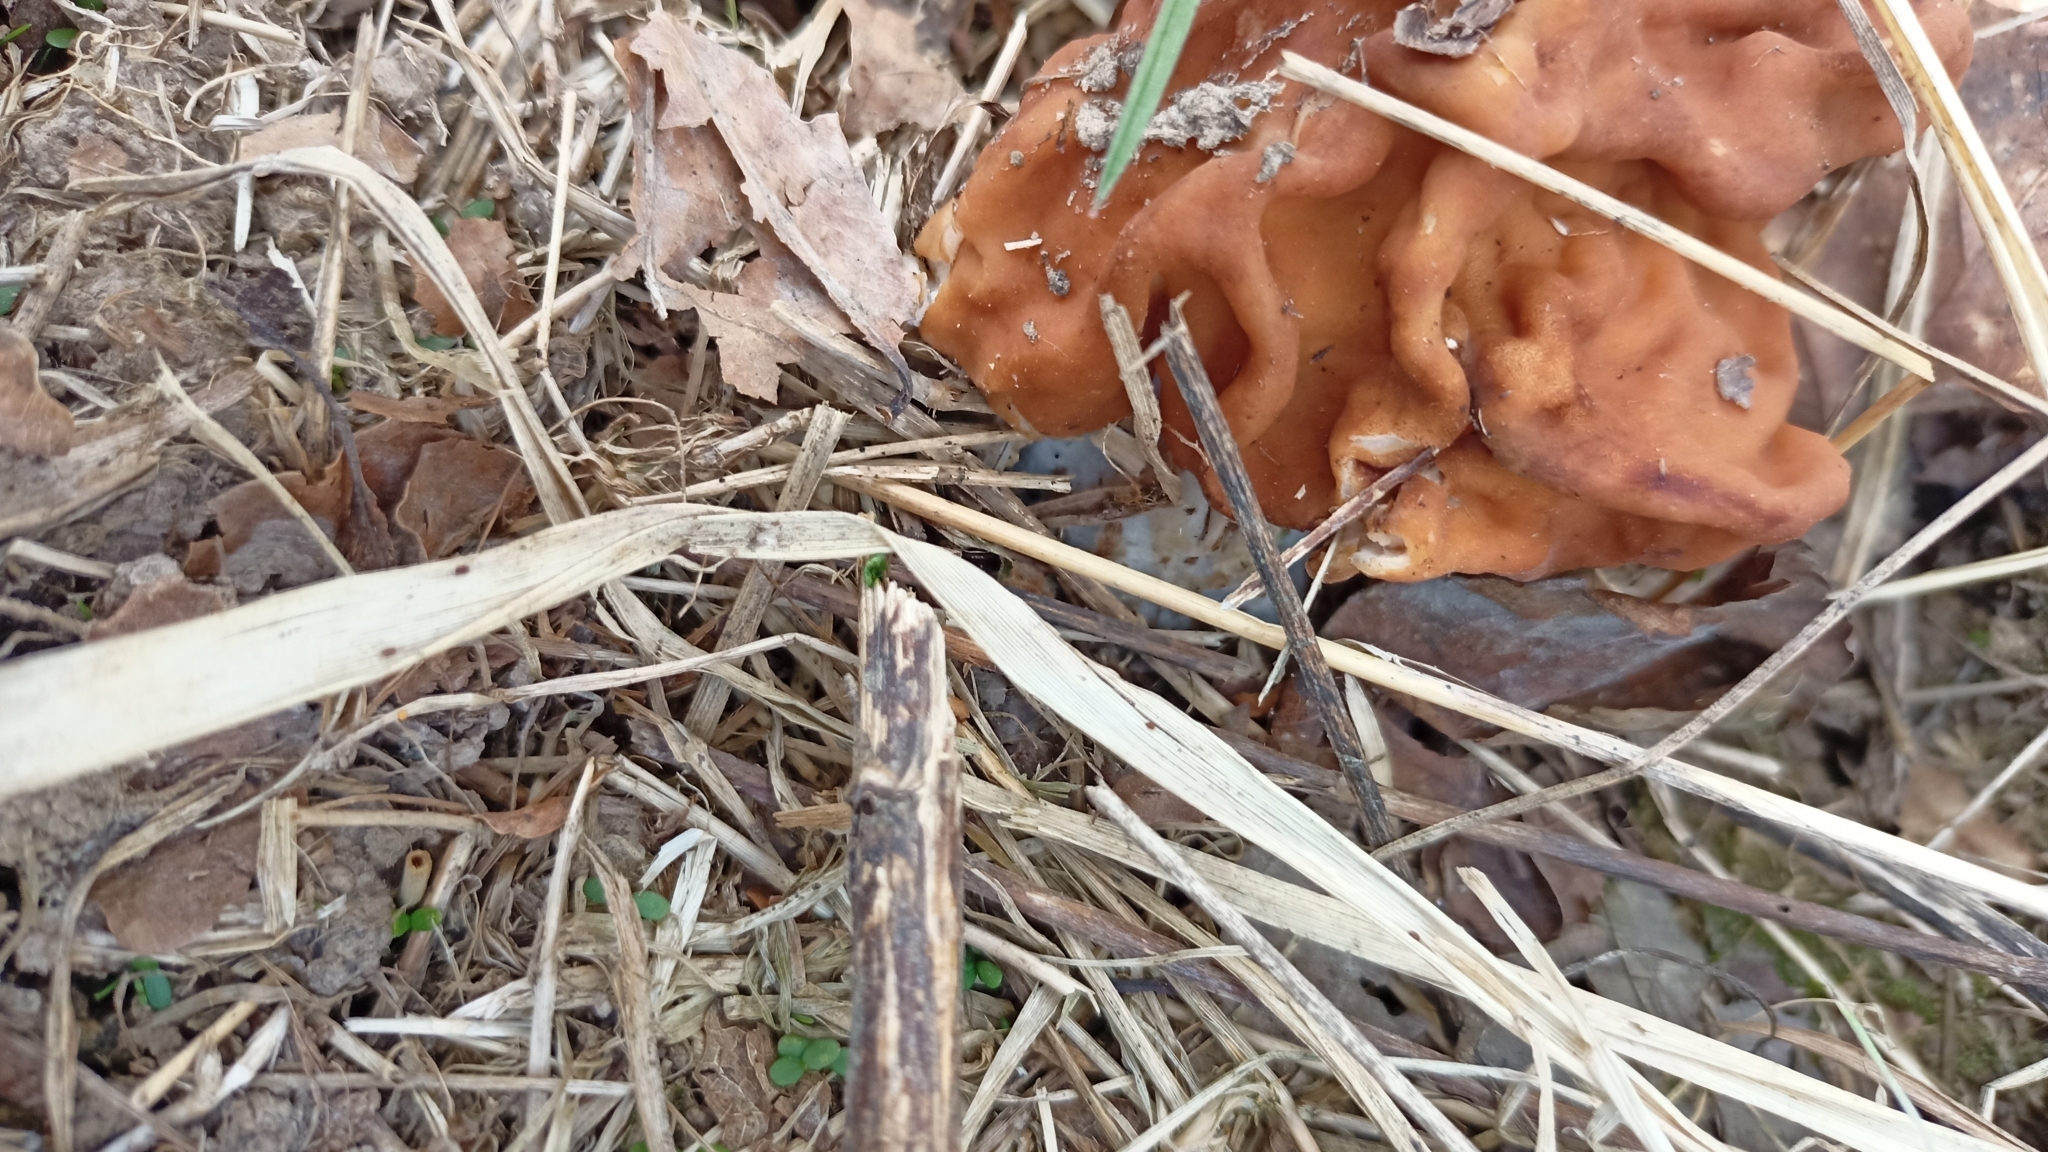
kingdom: Fungi
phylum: Ascomycota
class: Pezizomycetes
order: Pezizales
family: Discinaceae
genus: Gyromitra
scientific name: Gyromitra gigas
